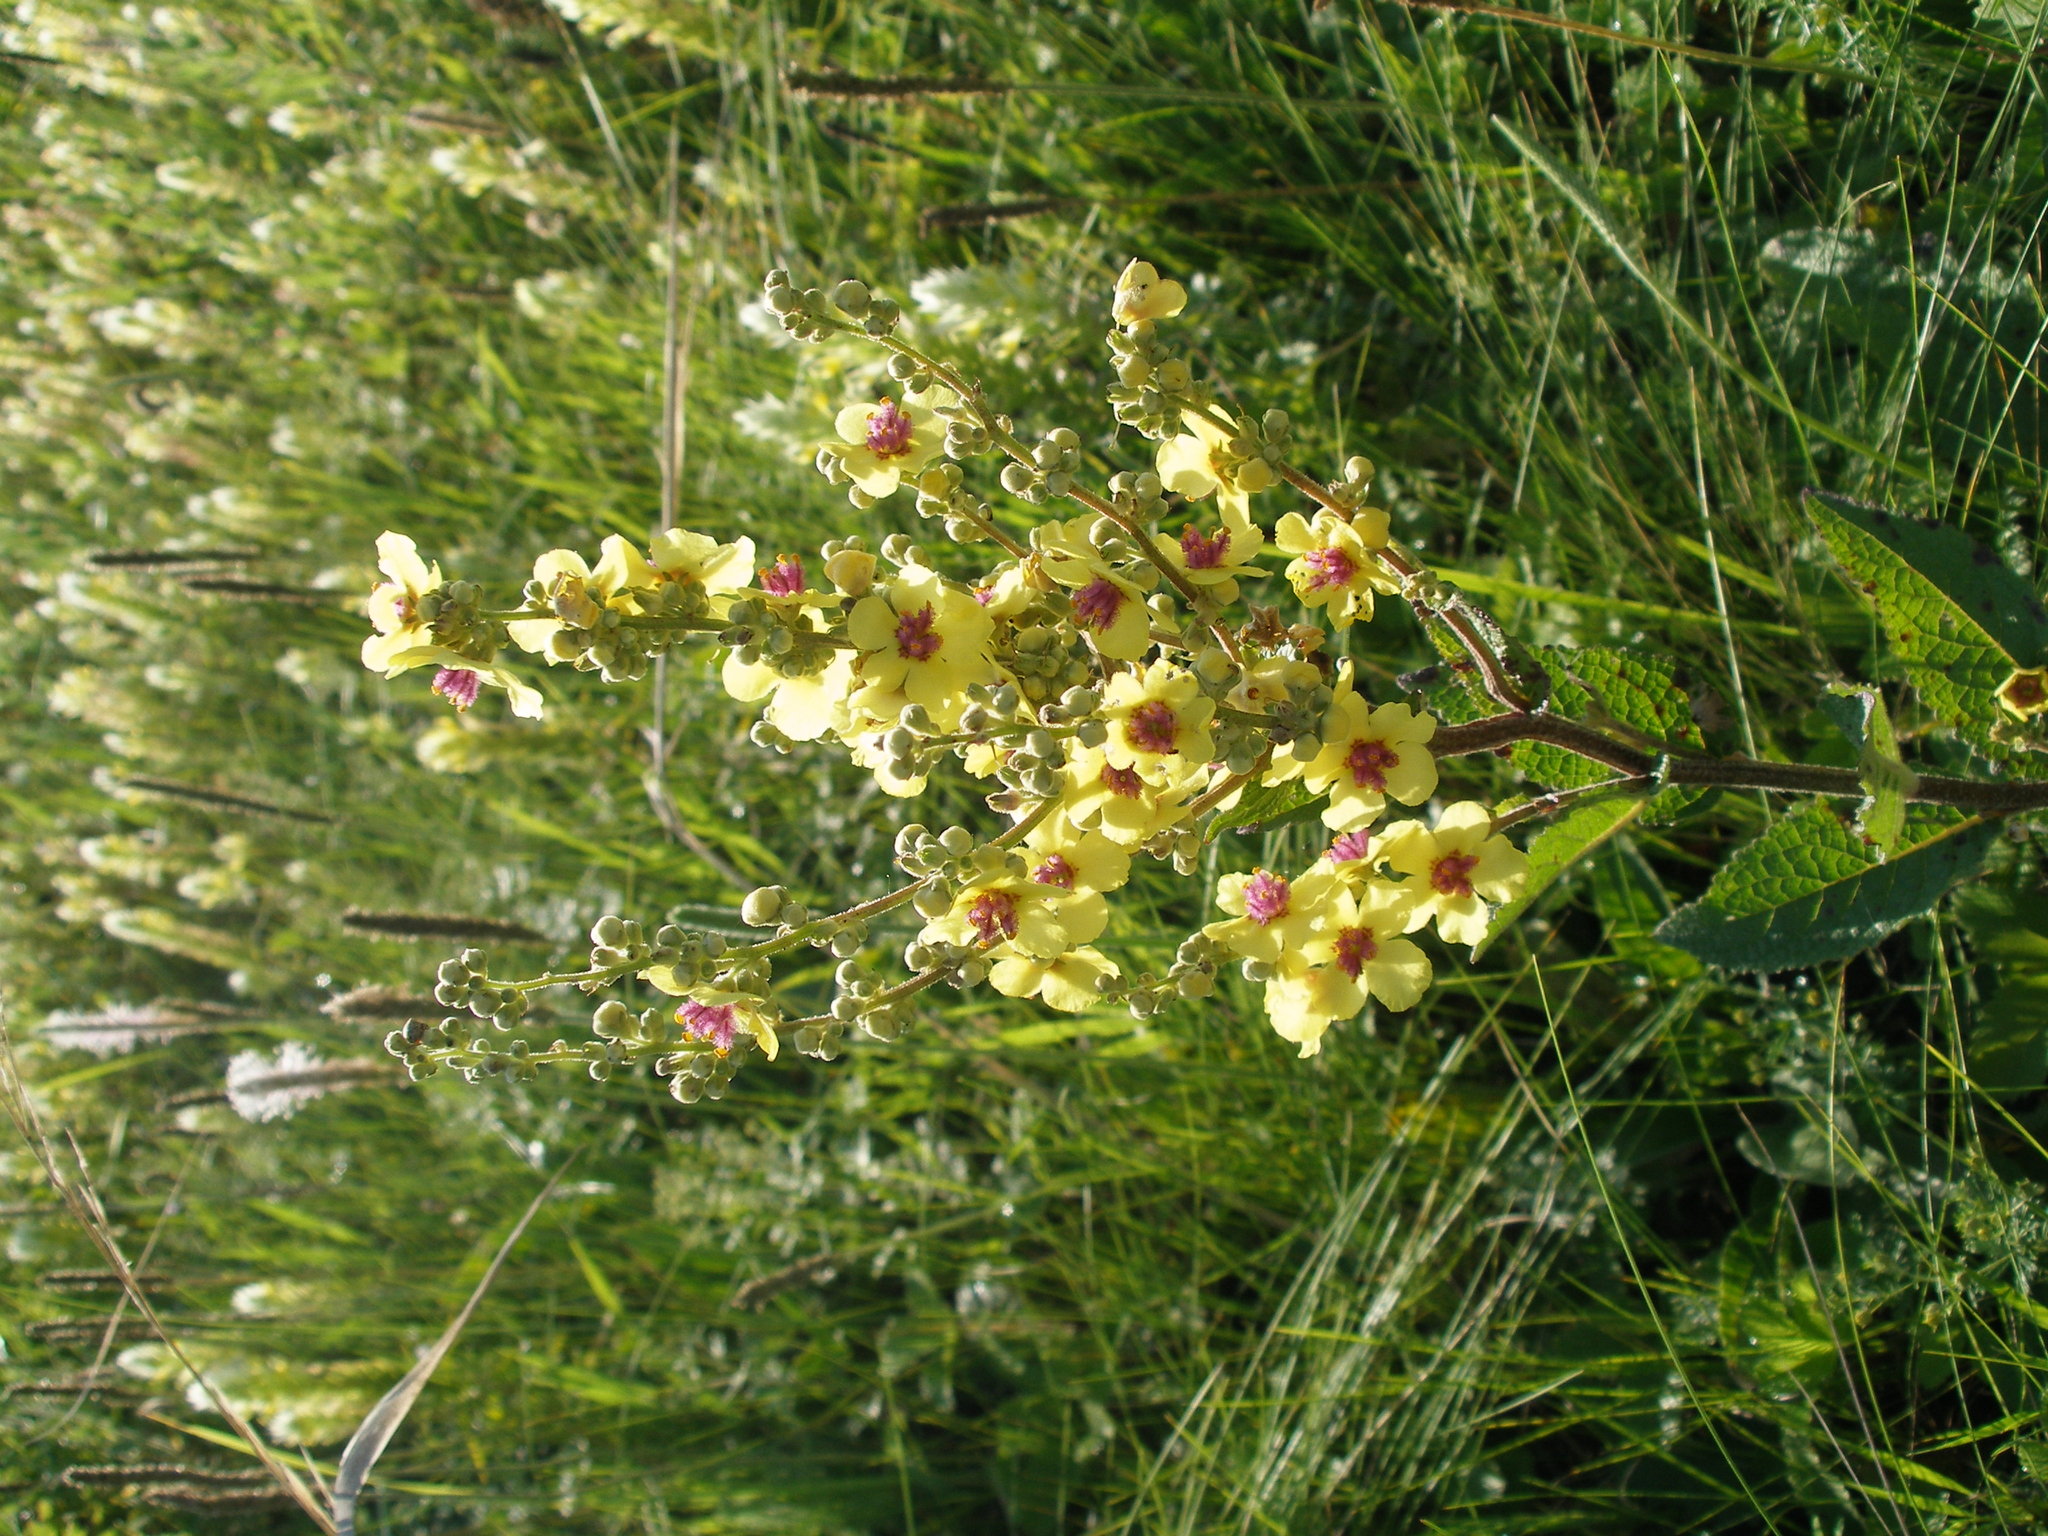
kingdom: Plantae
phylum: Tracheophyta
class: Magnoliopsida
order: Lamiales
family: Scrophulariaceae
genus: Verbascum
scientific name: Verbascum chaixii
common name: Nettle-leaved mullein
